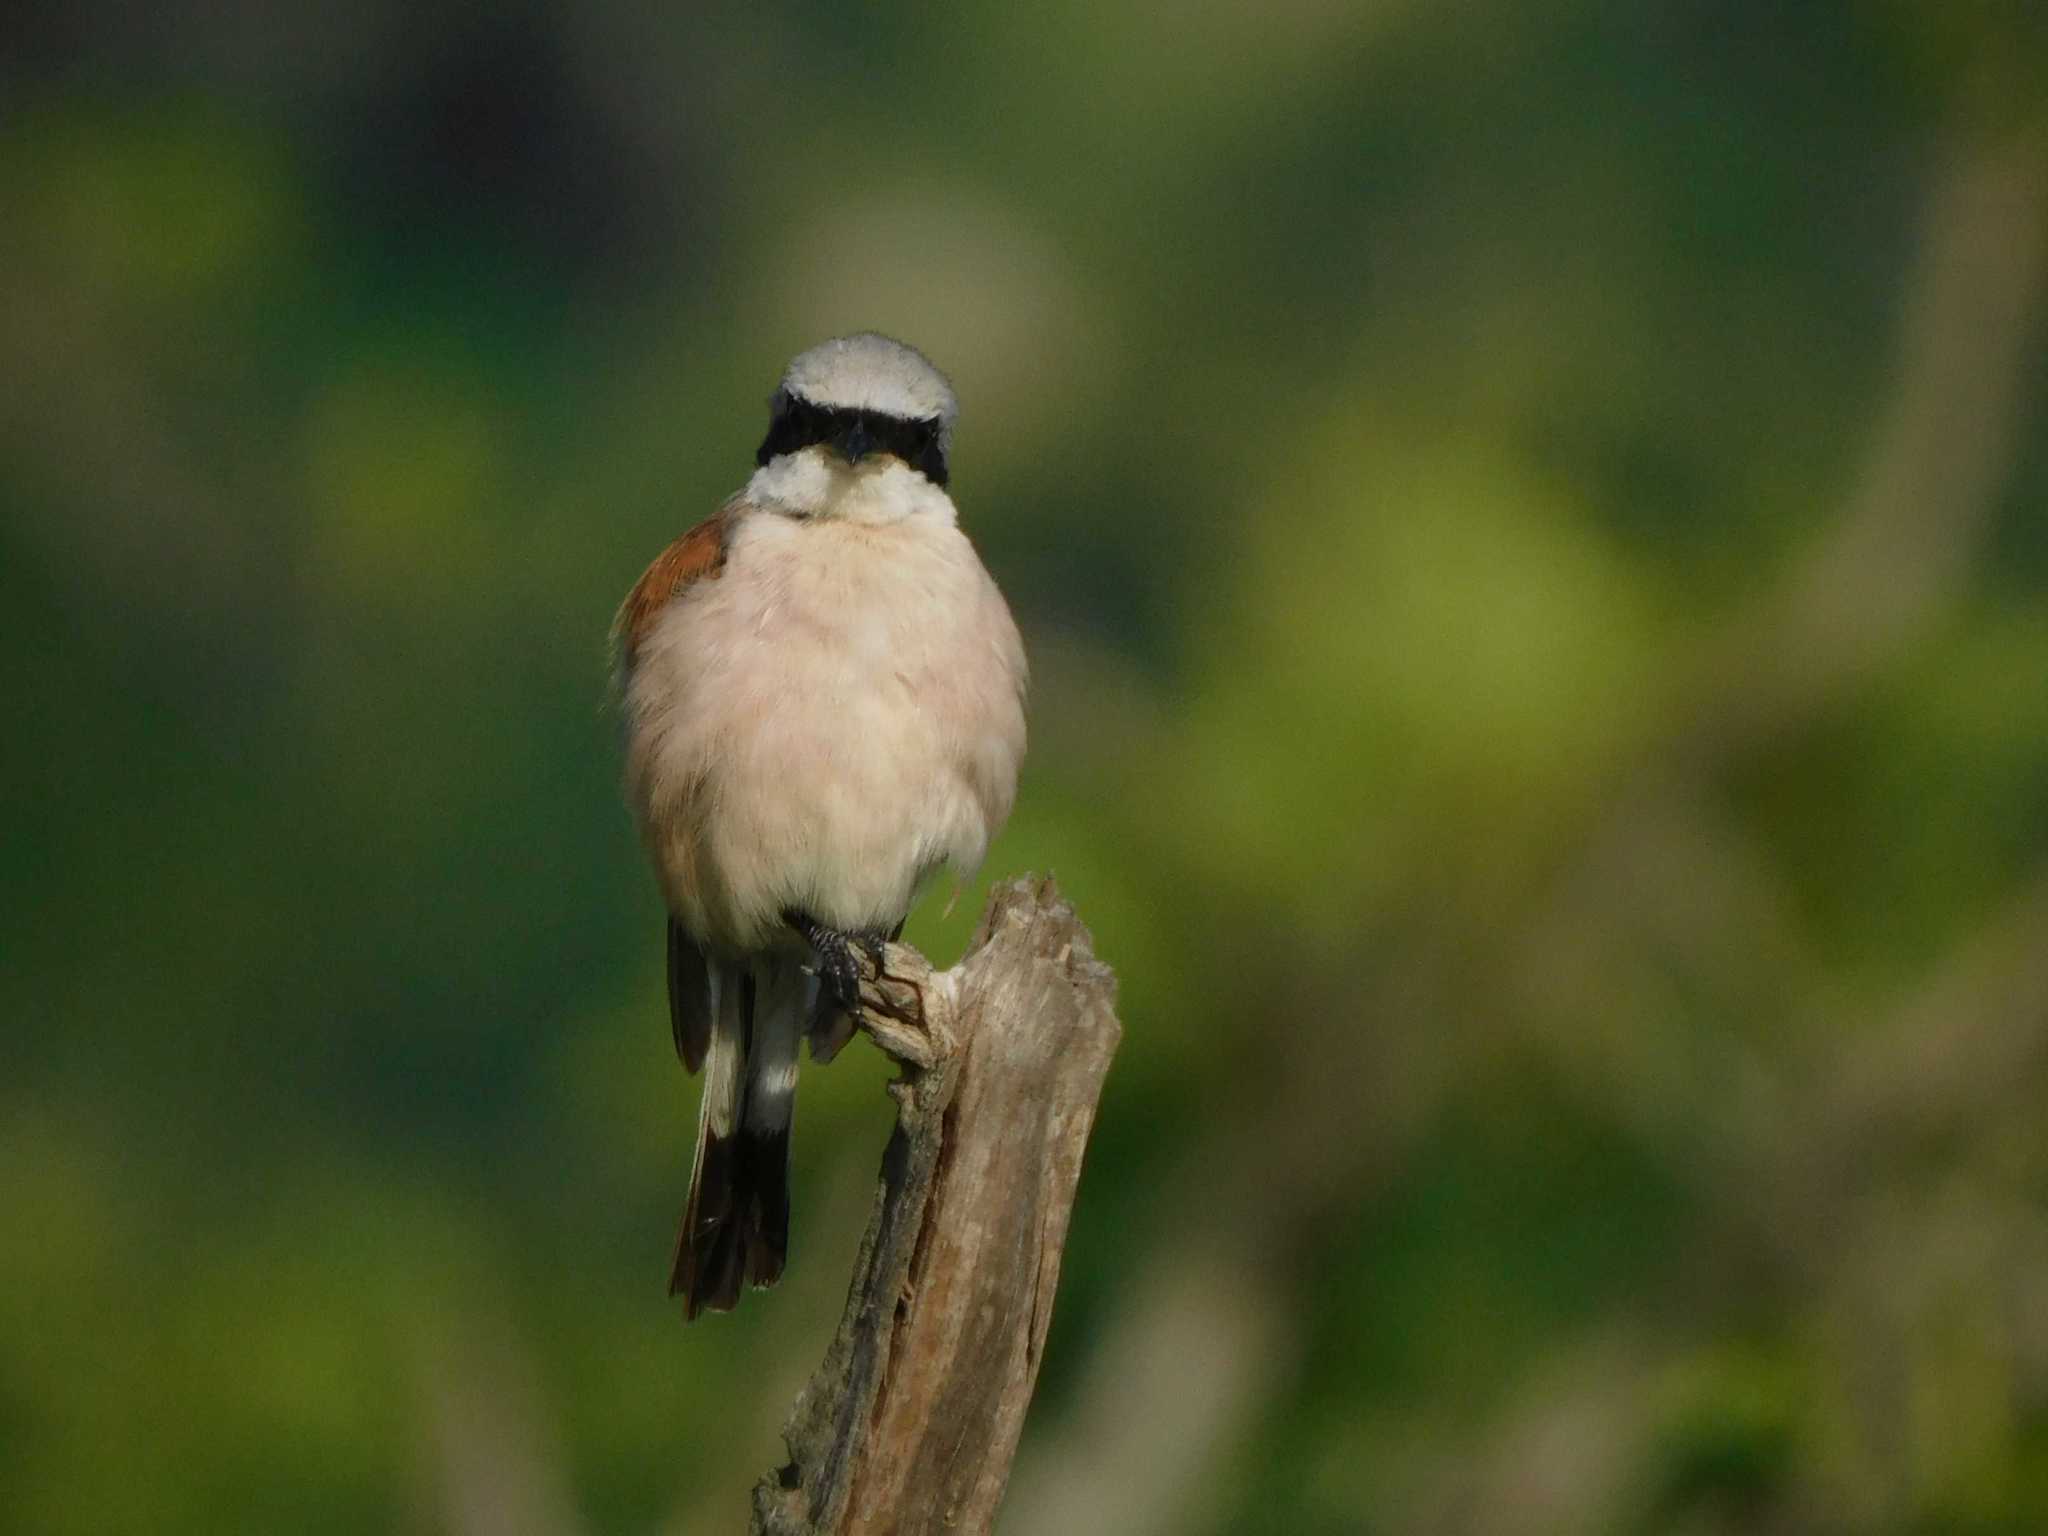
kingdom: Animalia
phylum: Chordata
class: Aves
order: Passeriformes
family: Laniidae
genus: Lanius
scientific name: Lanius collurio
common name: Red-backed shrike
